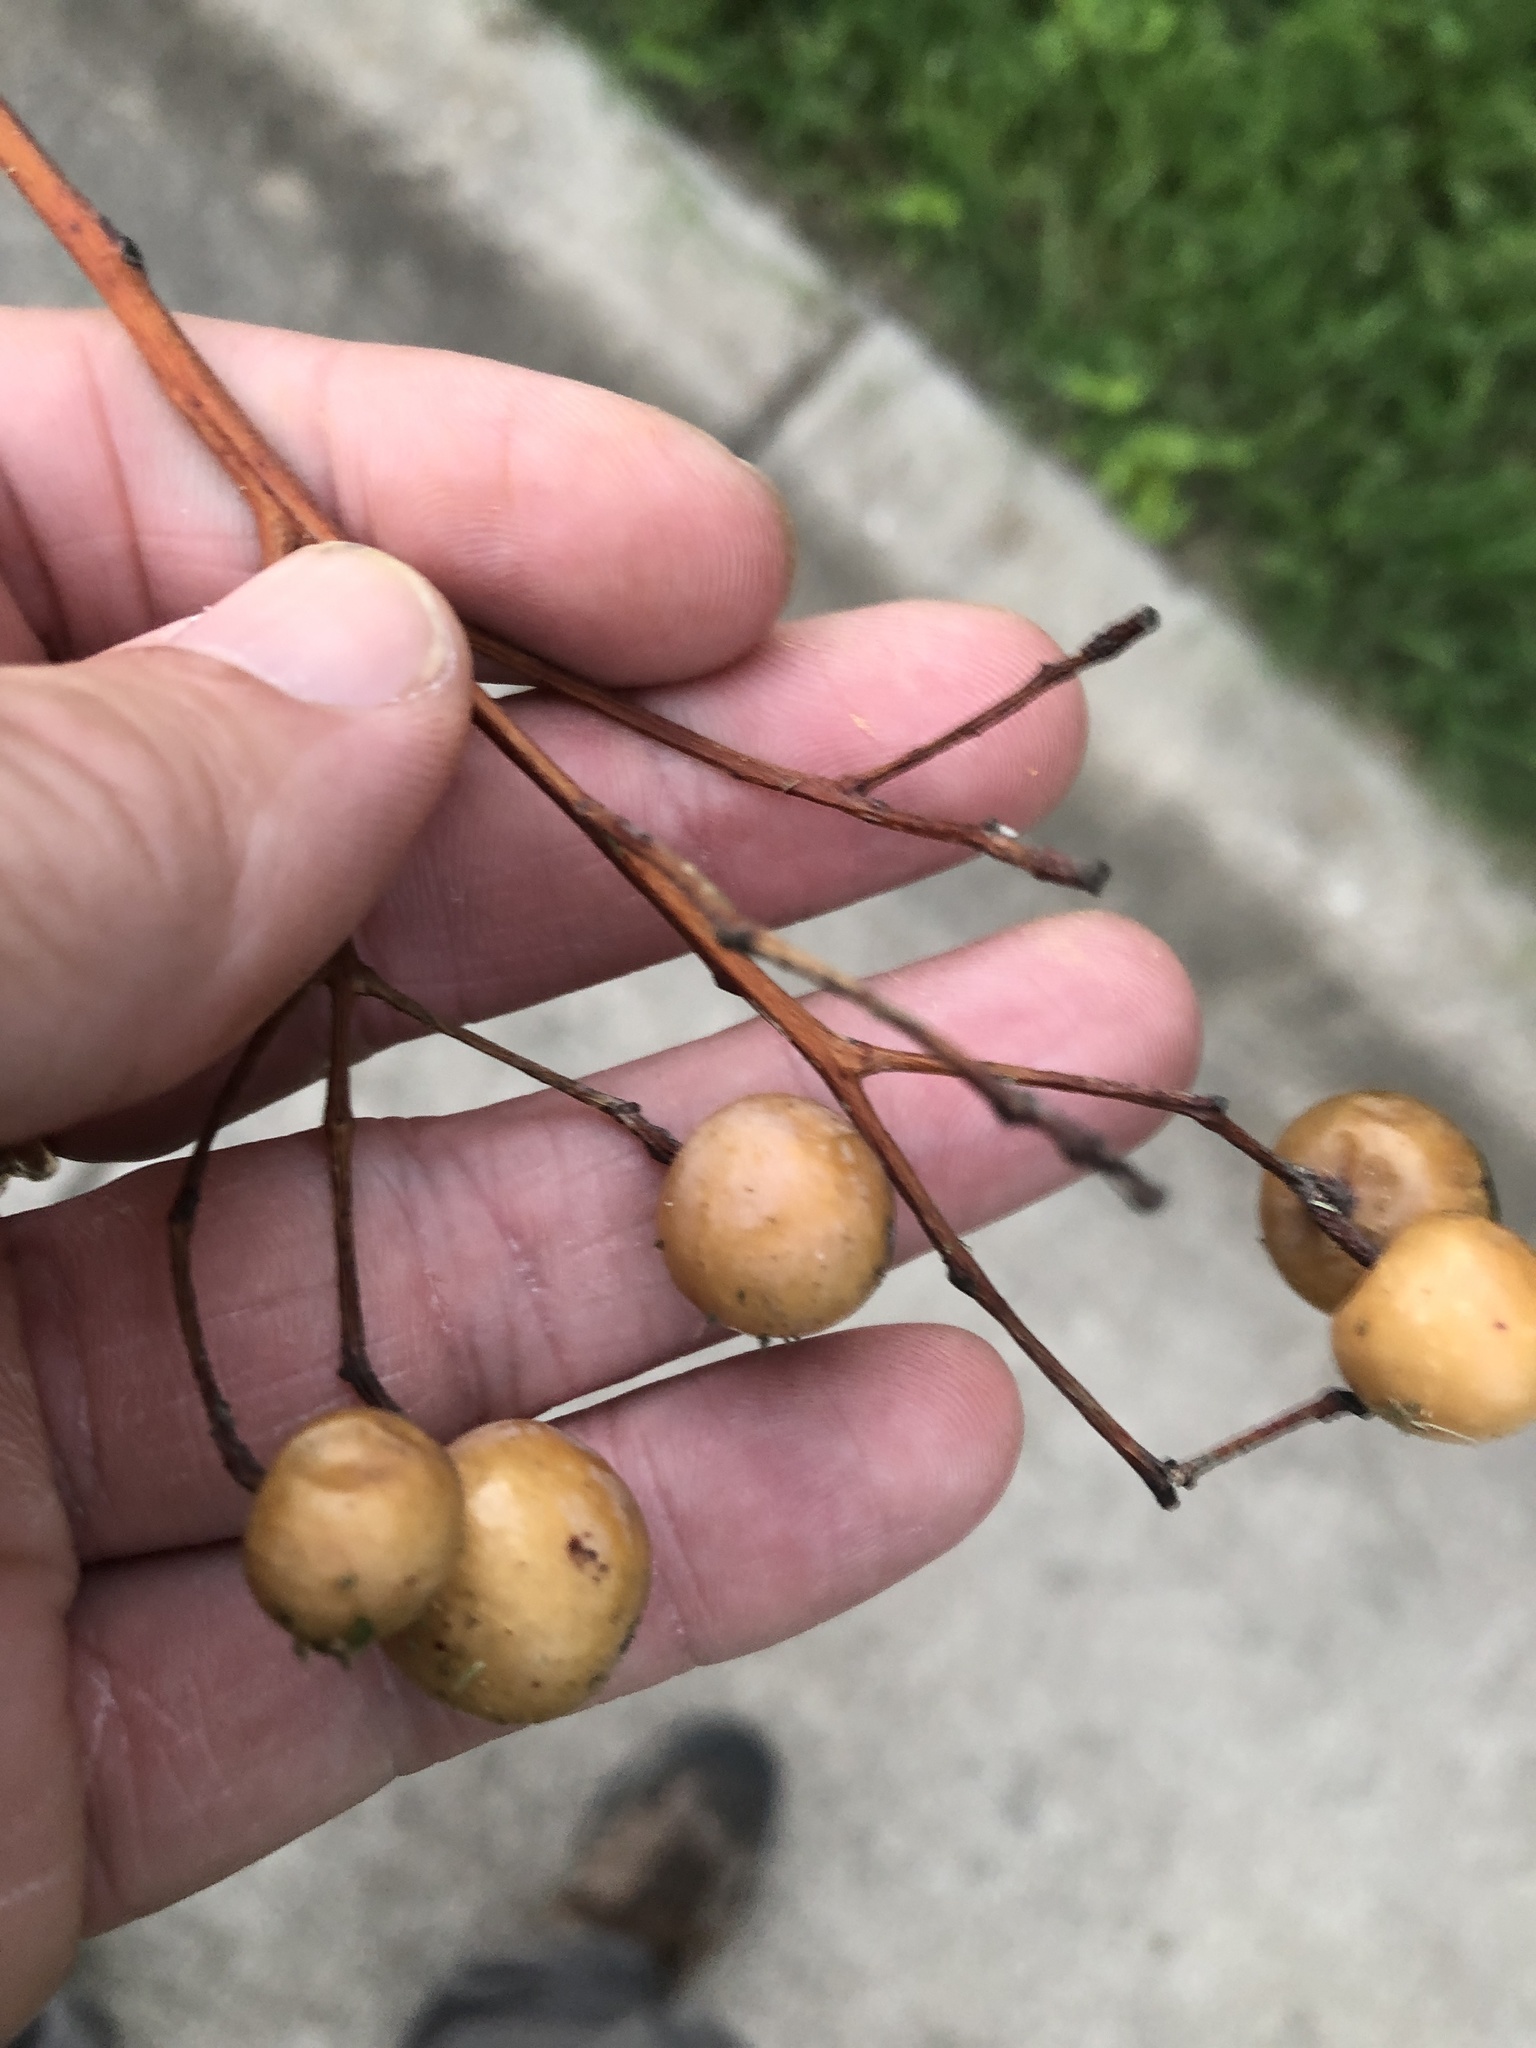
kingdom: Plantae
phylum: Tracheophyta
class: Magnoliopsida
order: Sapindales
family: Meliaceae
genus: Melia
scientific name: Melia azedarach
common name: Chinaberrytree
